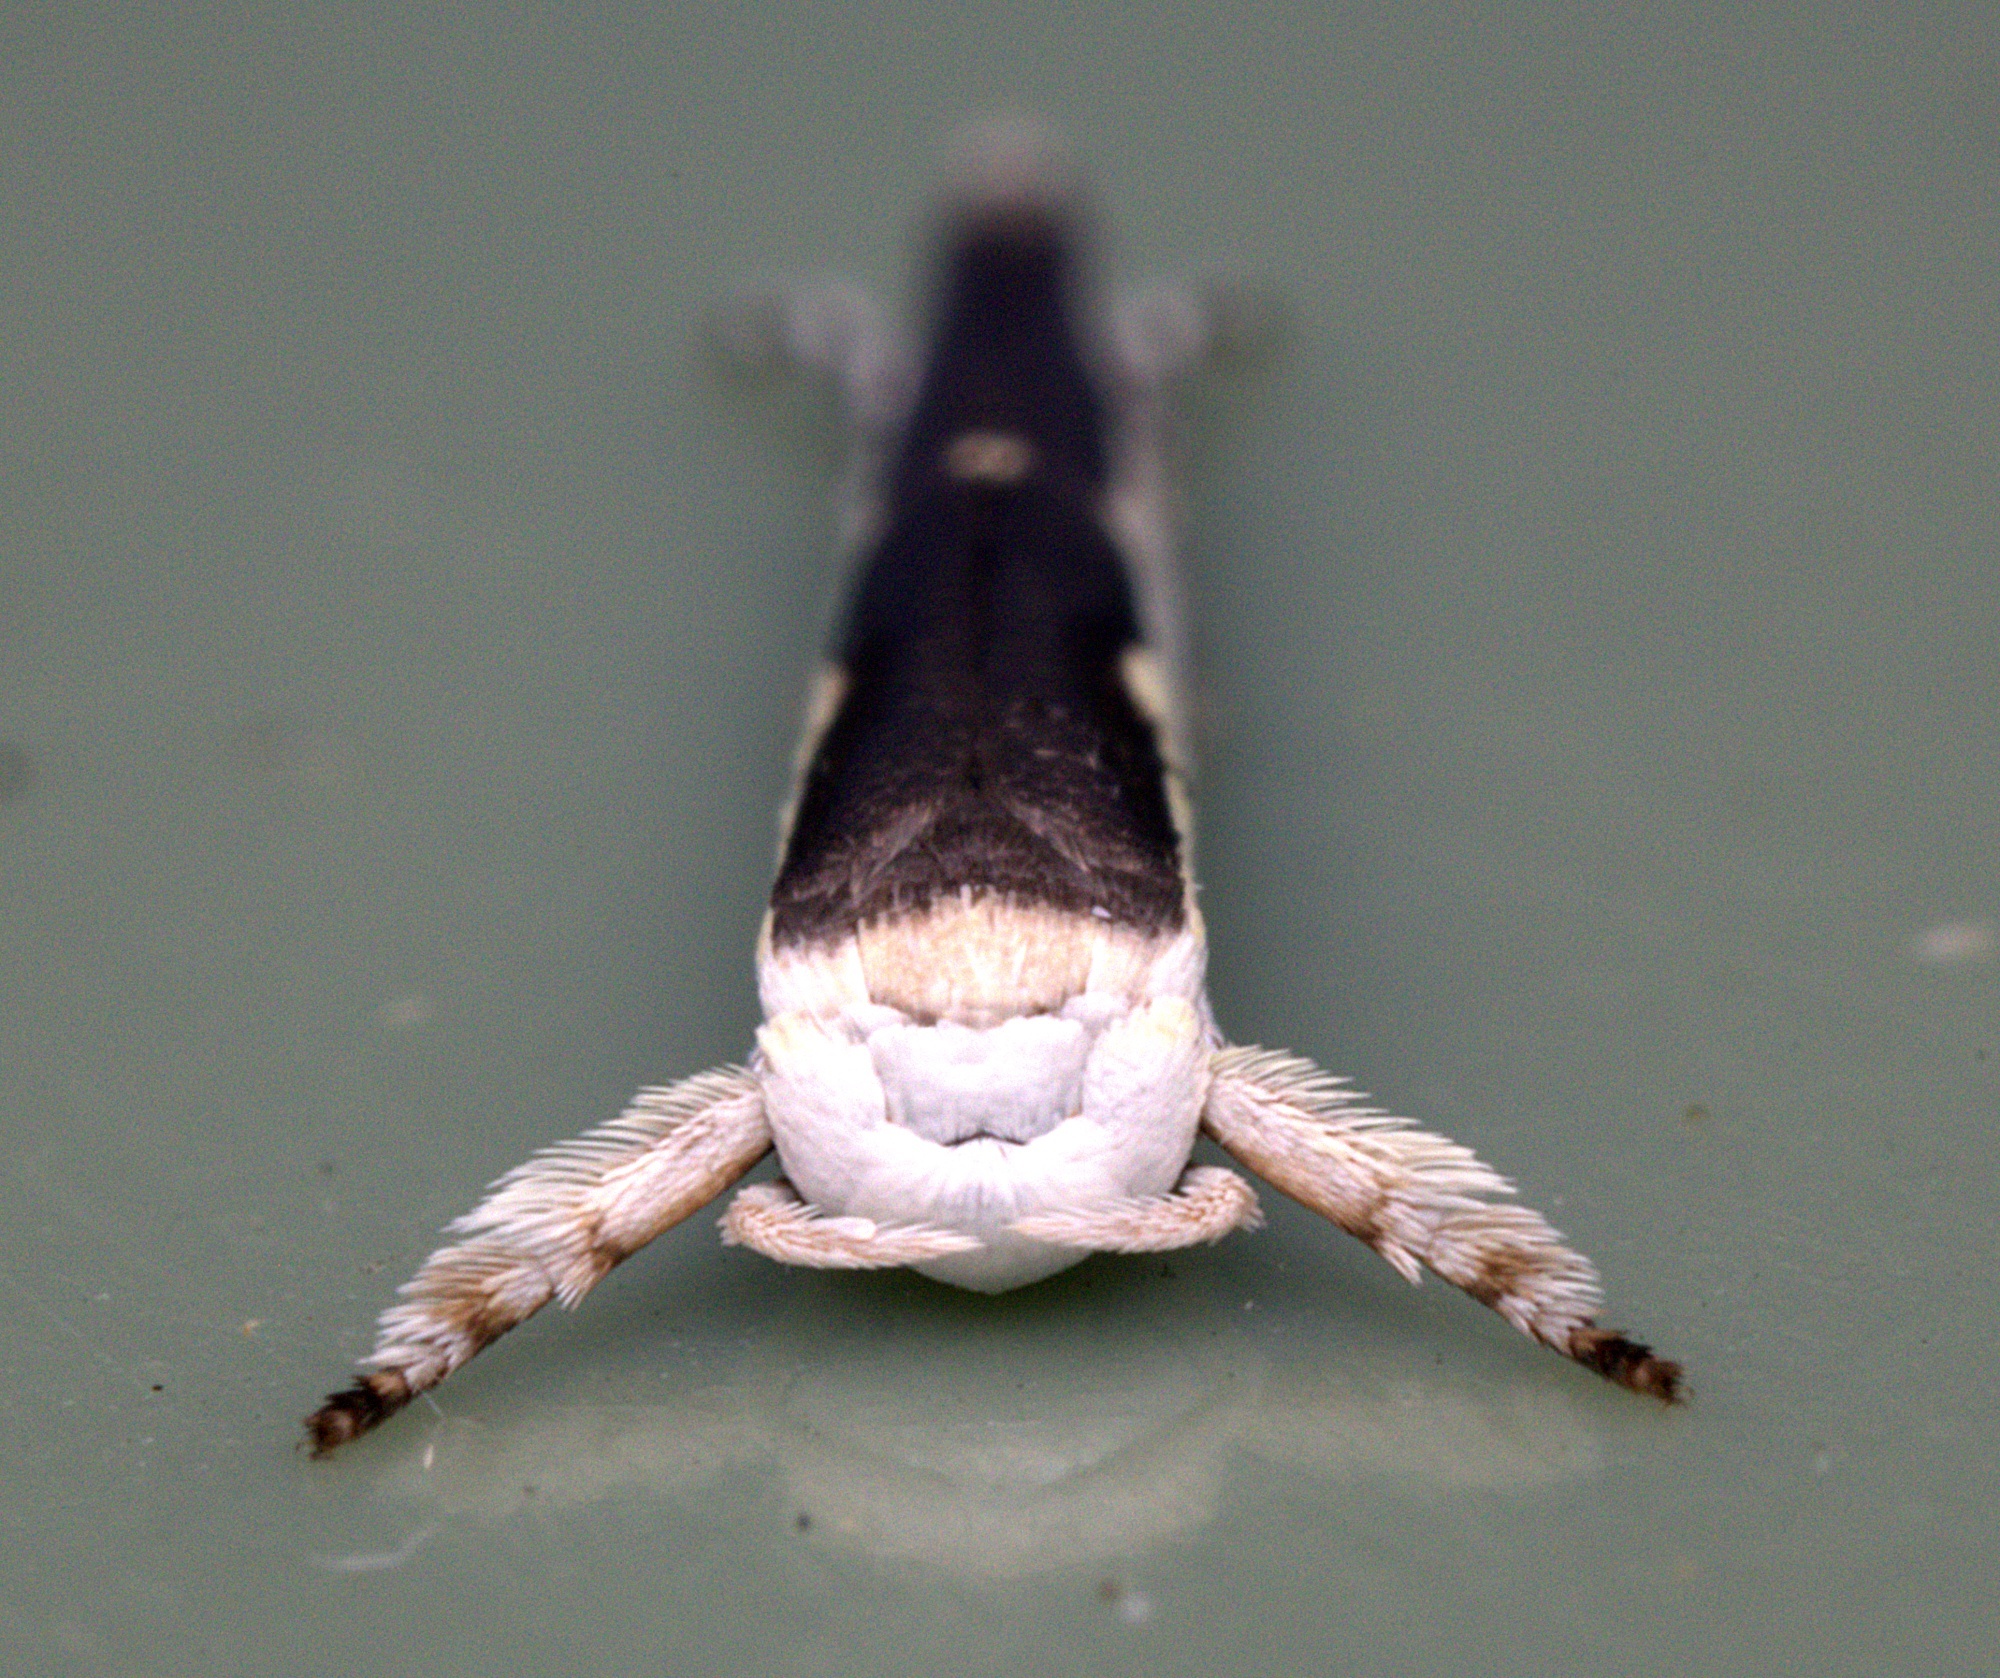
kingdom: Animalia
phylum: Arthropoda
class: Insecta
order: Lepidoptera
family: Roeslerstammiidae
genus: Vanicela
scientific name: Vanicela disjunctella
